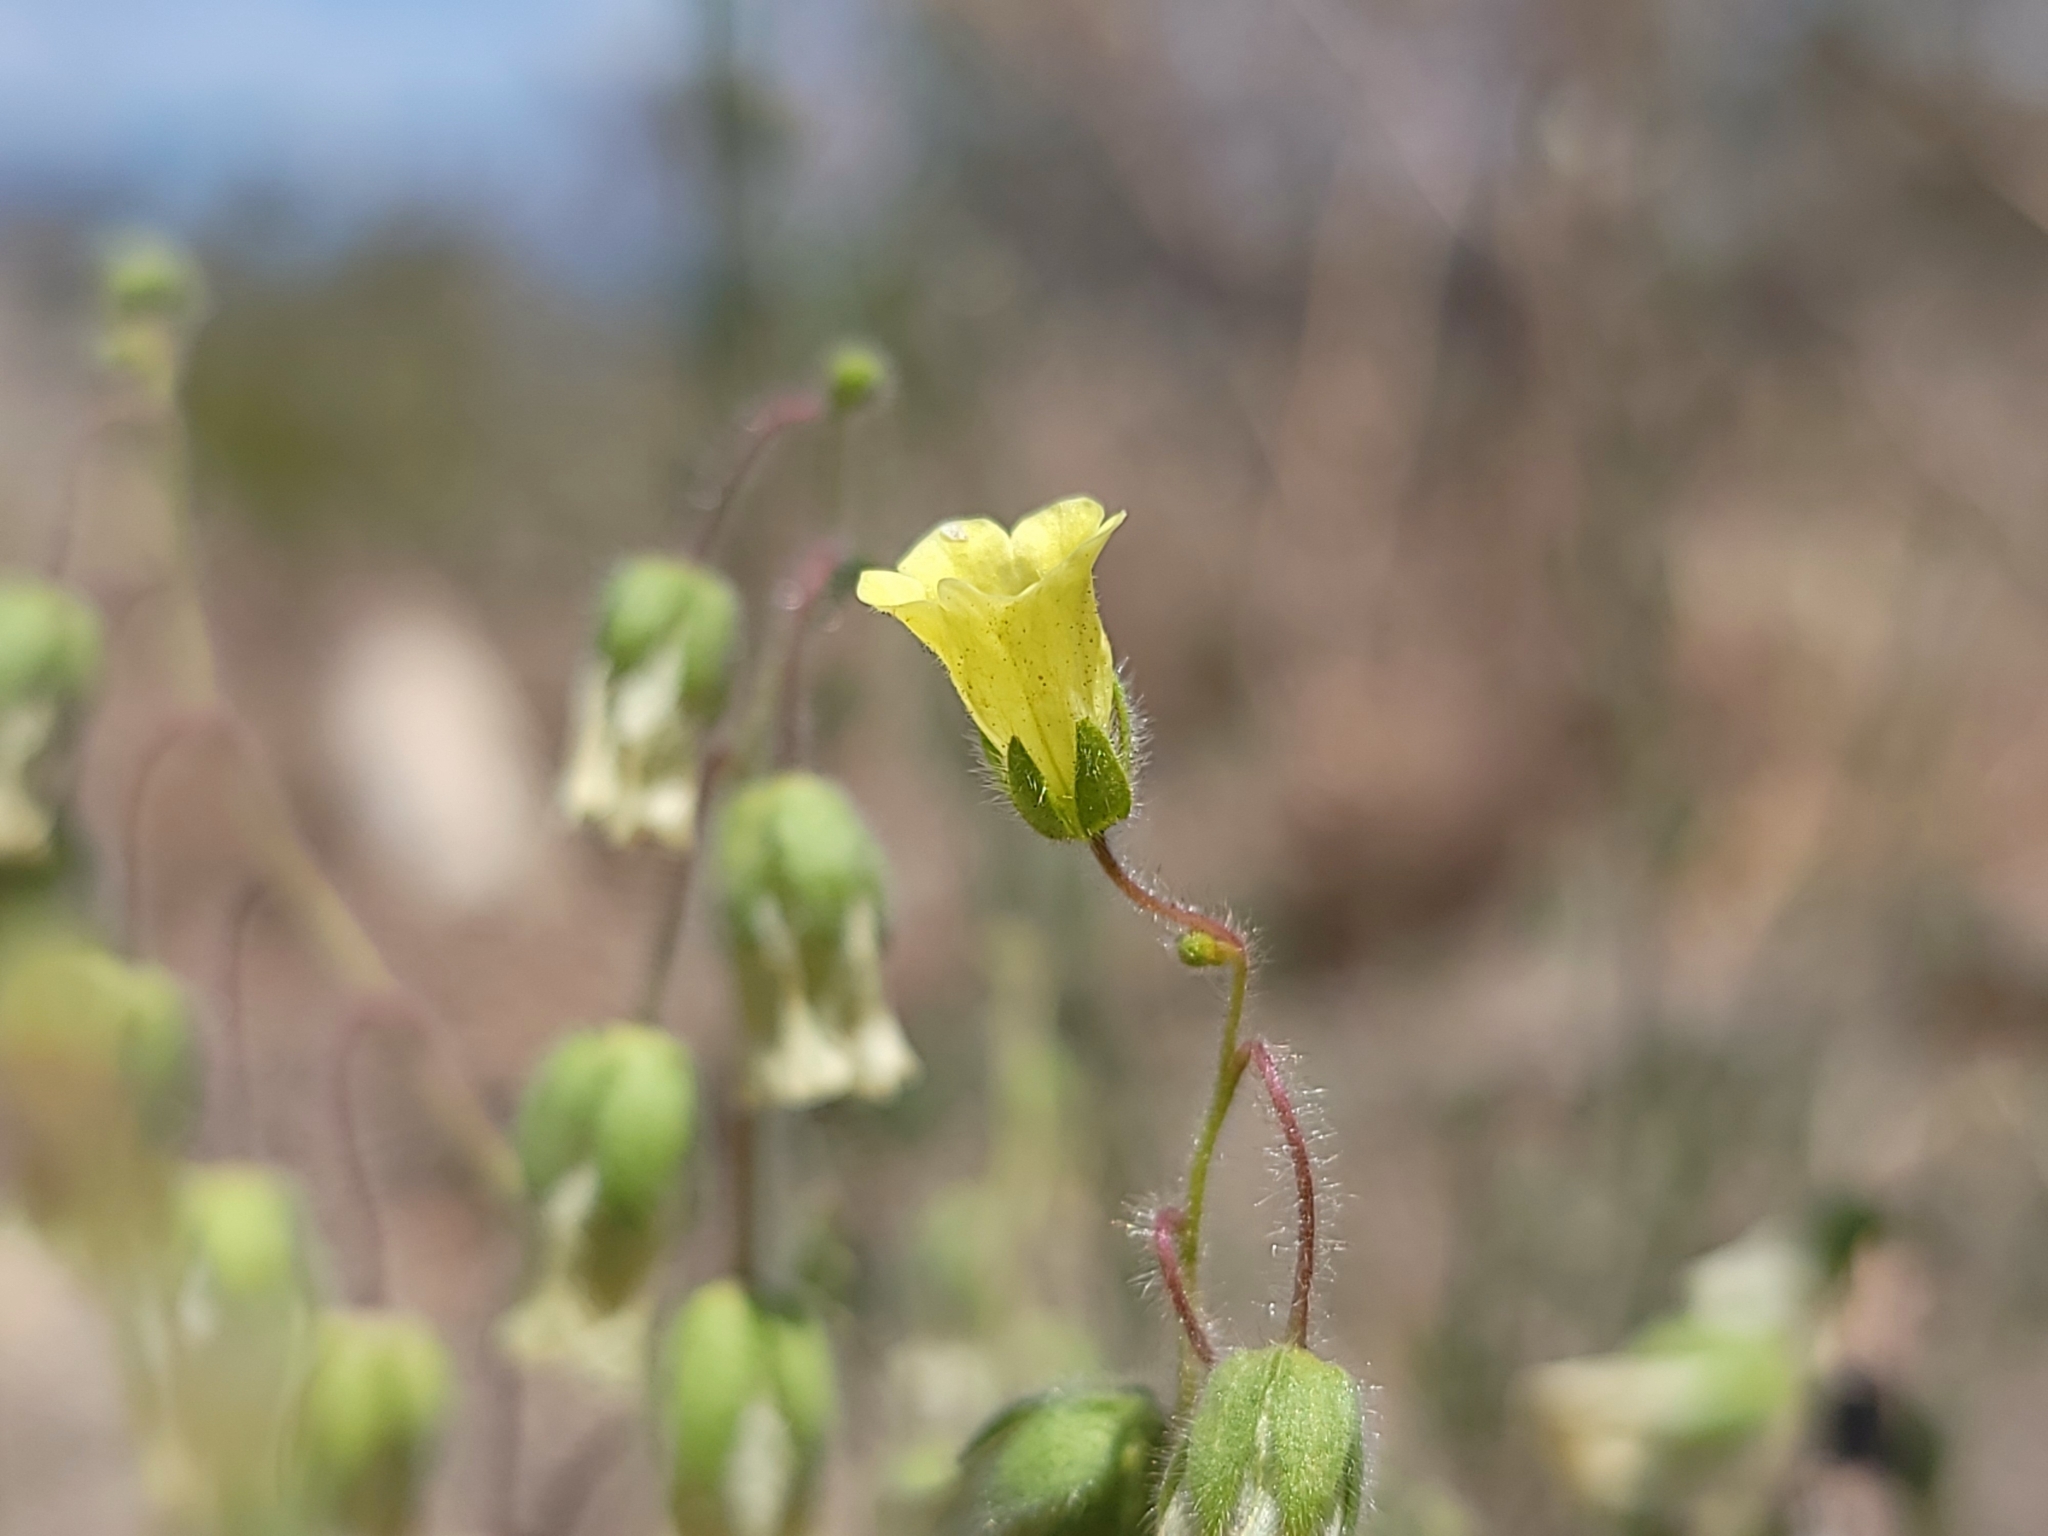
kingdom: Plantae
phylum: Tracheophyta
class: Magnoliopsida
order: Boraginales
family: Hydrophyllaceae
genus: Emmenanthe
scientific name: Emmenanthe penduliflora
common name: Whispering-bells
